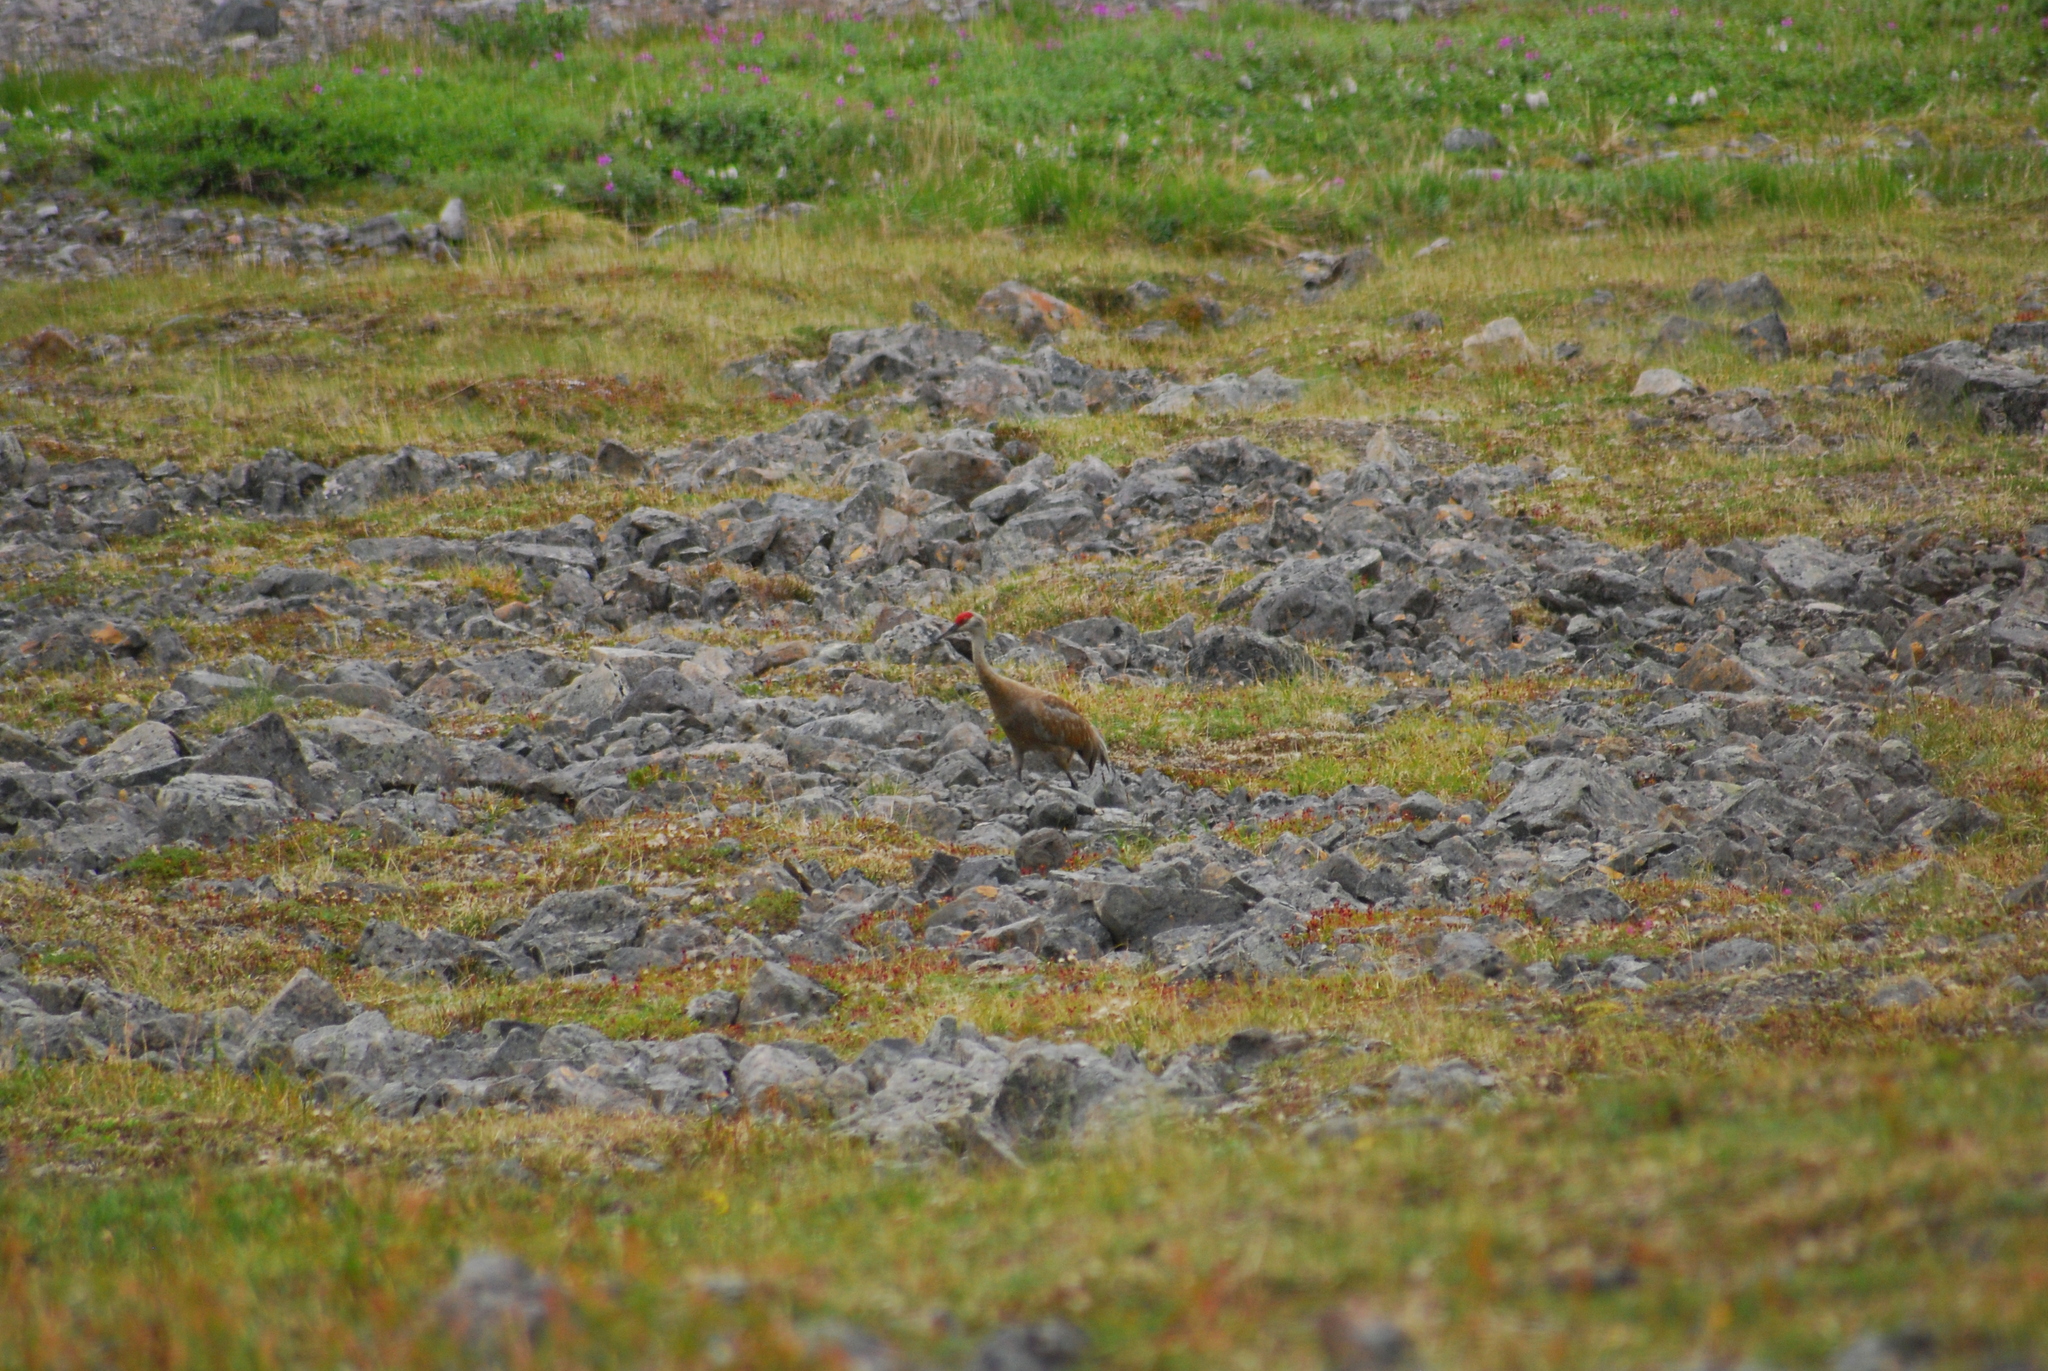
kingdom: Animalia
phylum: Chordata
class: Aves
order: Gruiformes
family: Gruidae
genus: Grus
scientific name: Grus canadensis
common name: Sandhill crane
